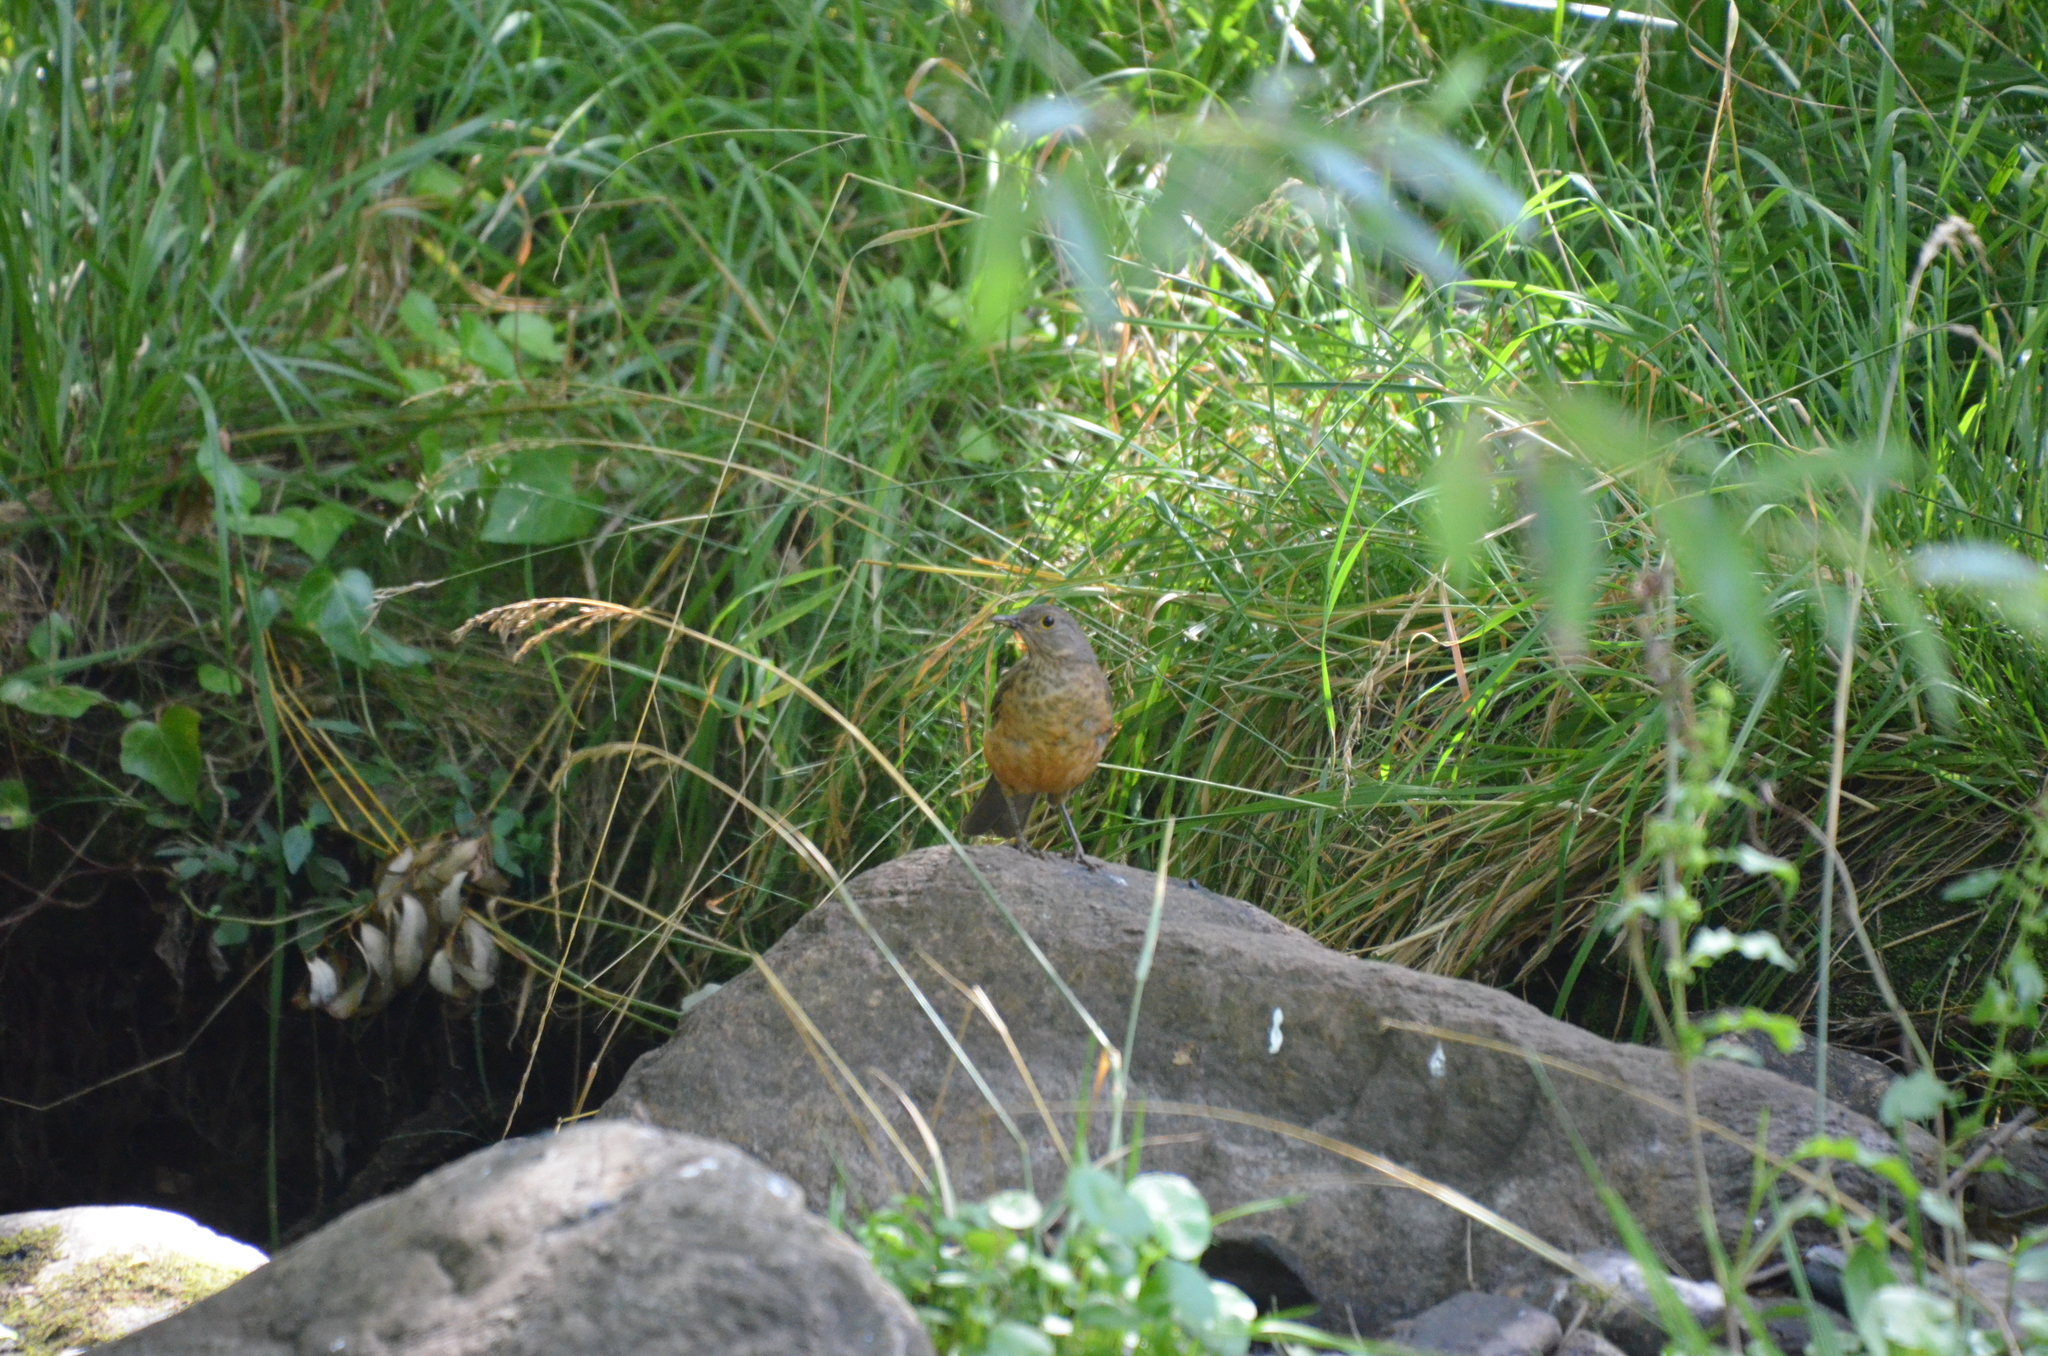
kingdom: Animalia
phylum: Chordata
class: Aves
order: Passeriformes
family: Turdidae
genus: Turdus
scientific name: Turdus rufiventris
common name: Rufous-bellied thrush
